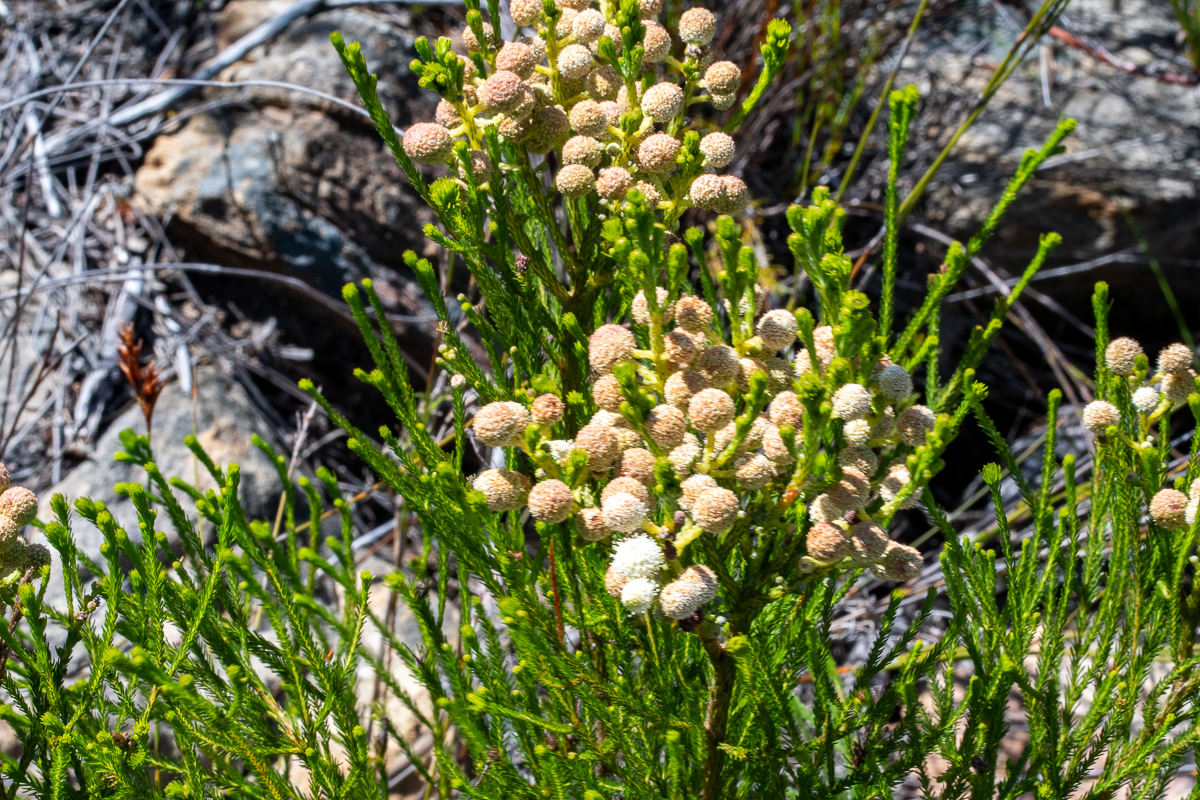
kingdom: Plantae
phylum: Tracheophyta
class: Magnoliopsida
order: Bruniales
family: Bruniaceae
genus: Berzelia
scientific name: Berzelia lanuginosa
